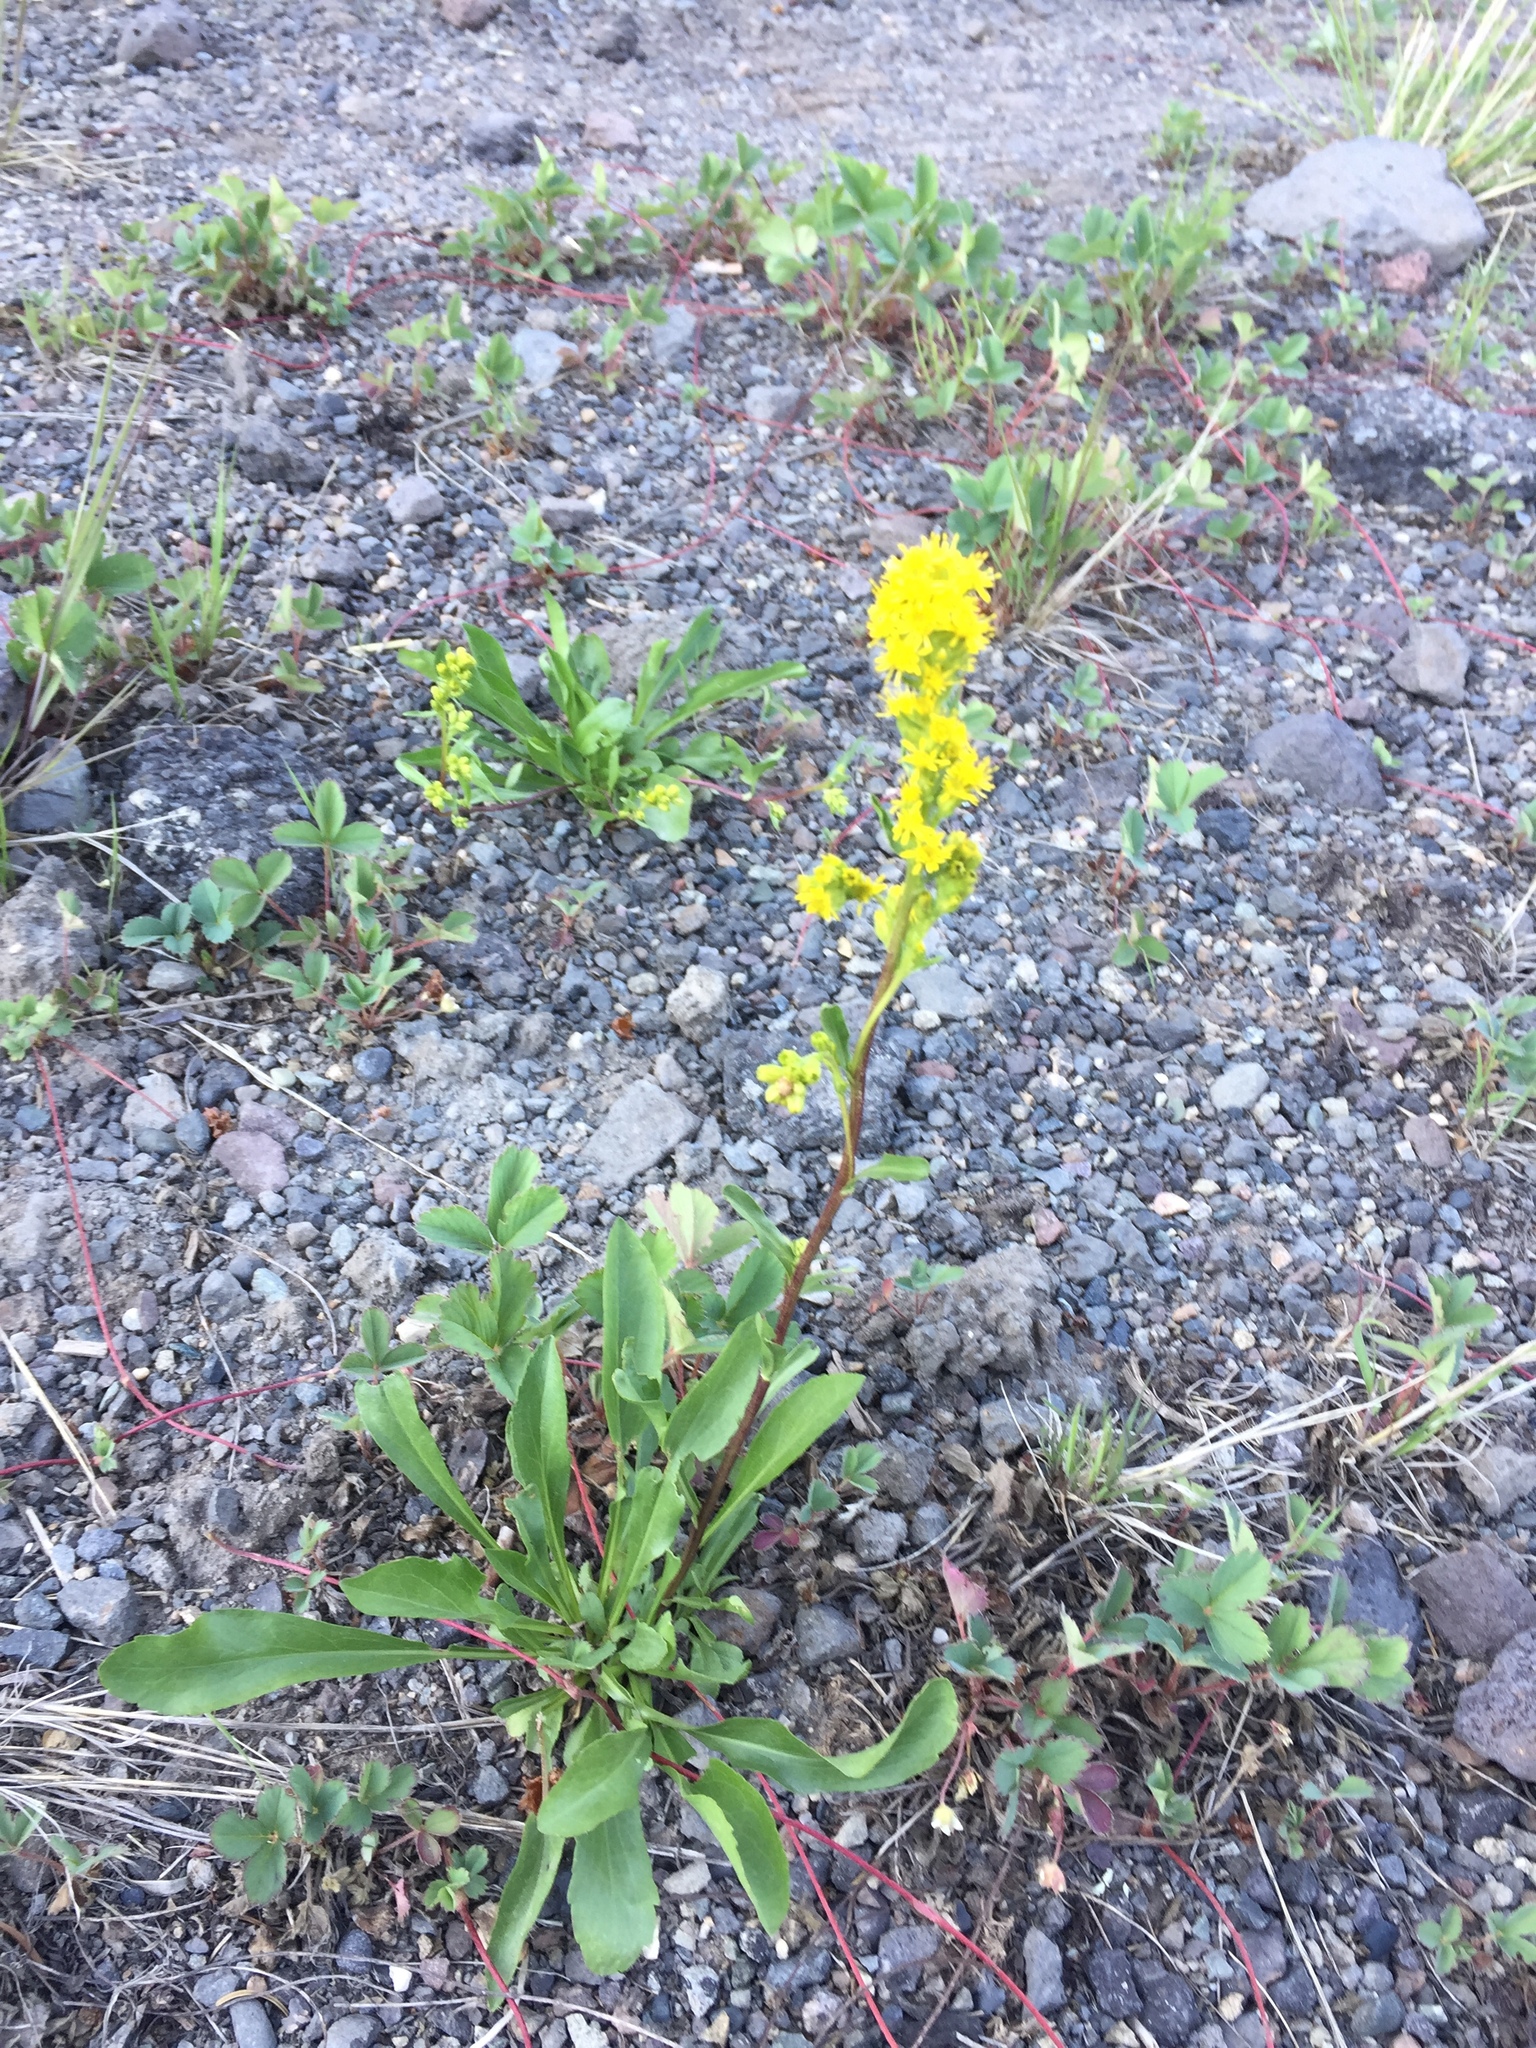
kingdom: Plantae
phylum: Tracheophyta
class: Magnoliopsida
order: Asterales
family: Asteraceae
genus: Solidago
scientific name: Solidago multiradiata
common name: Northern goldenrod
